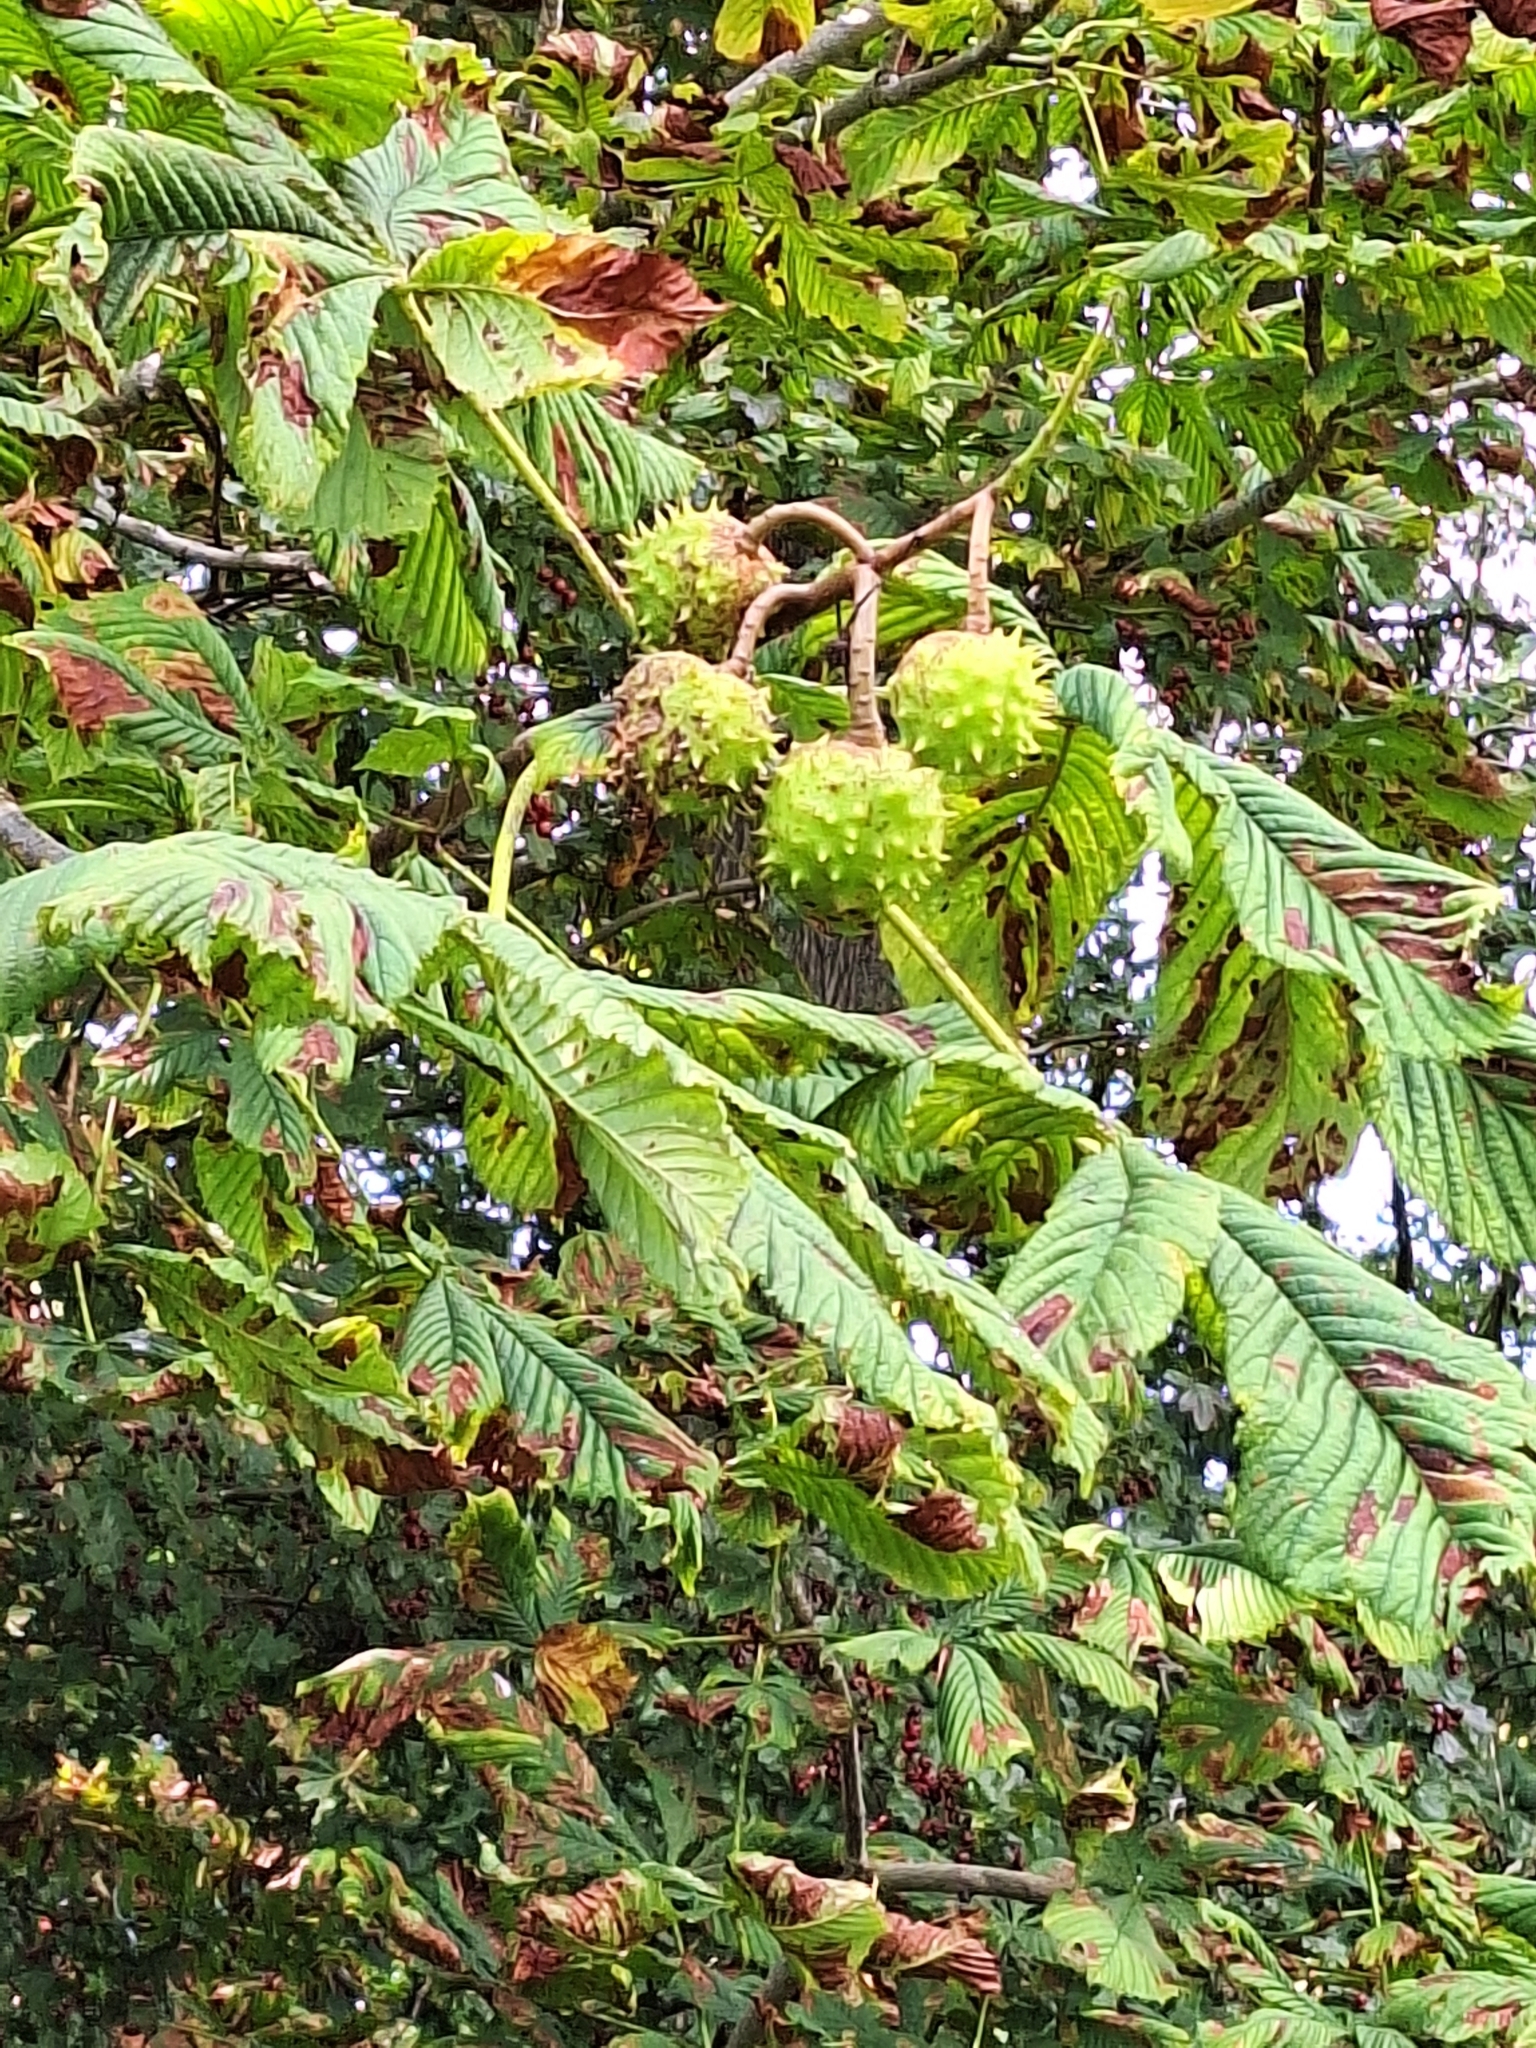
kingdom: Plantae
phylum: Tracheophyta
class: Magnoliopsida
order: Sapindales
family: Sapindaceae
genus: Aesculus
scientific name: Aesculus hippocastanum
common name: Horse-chestnut
